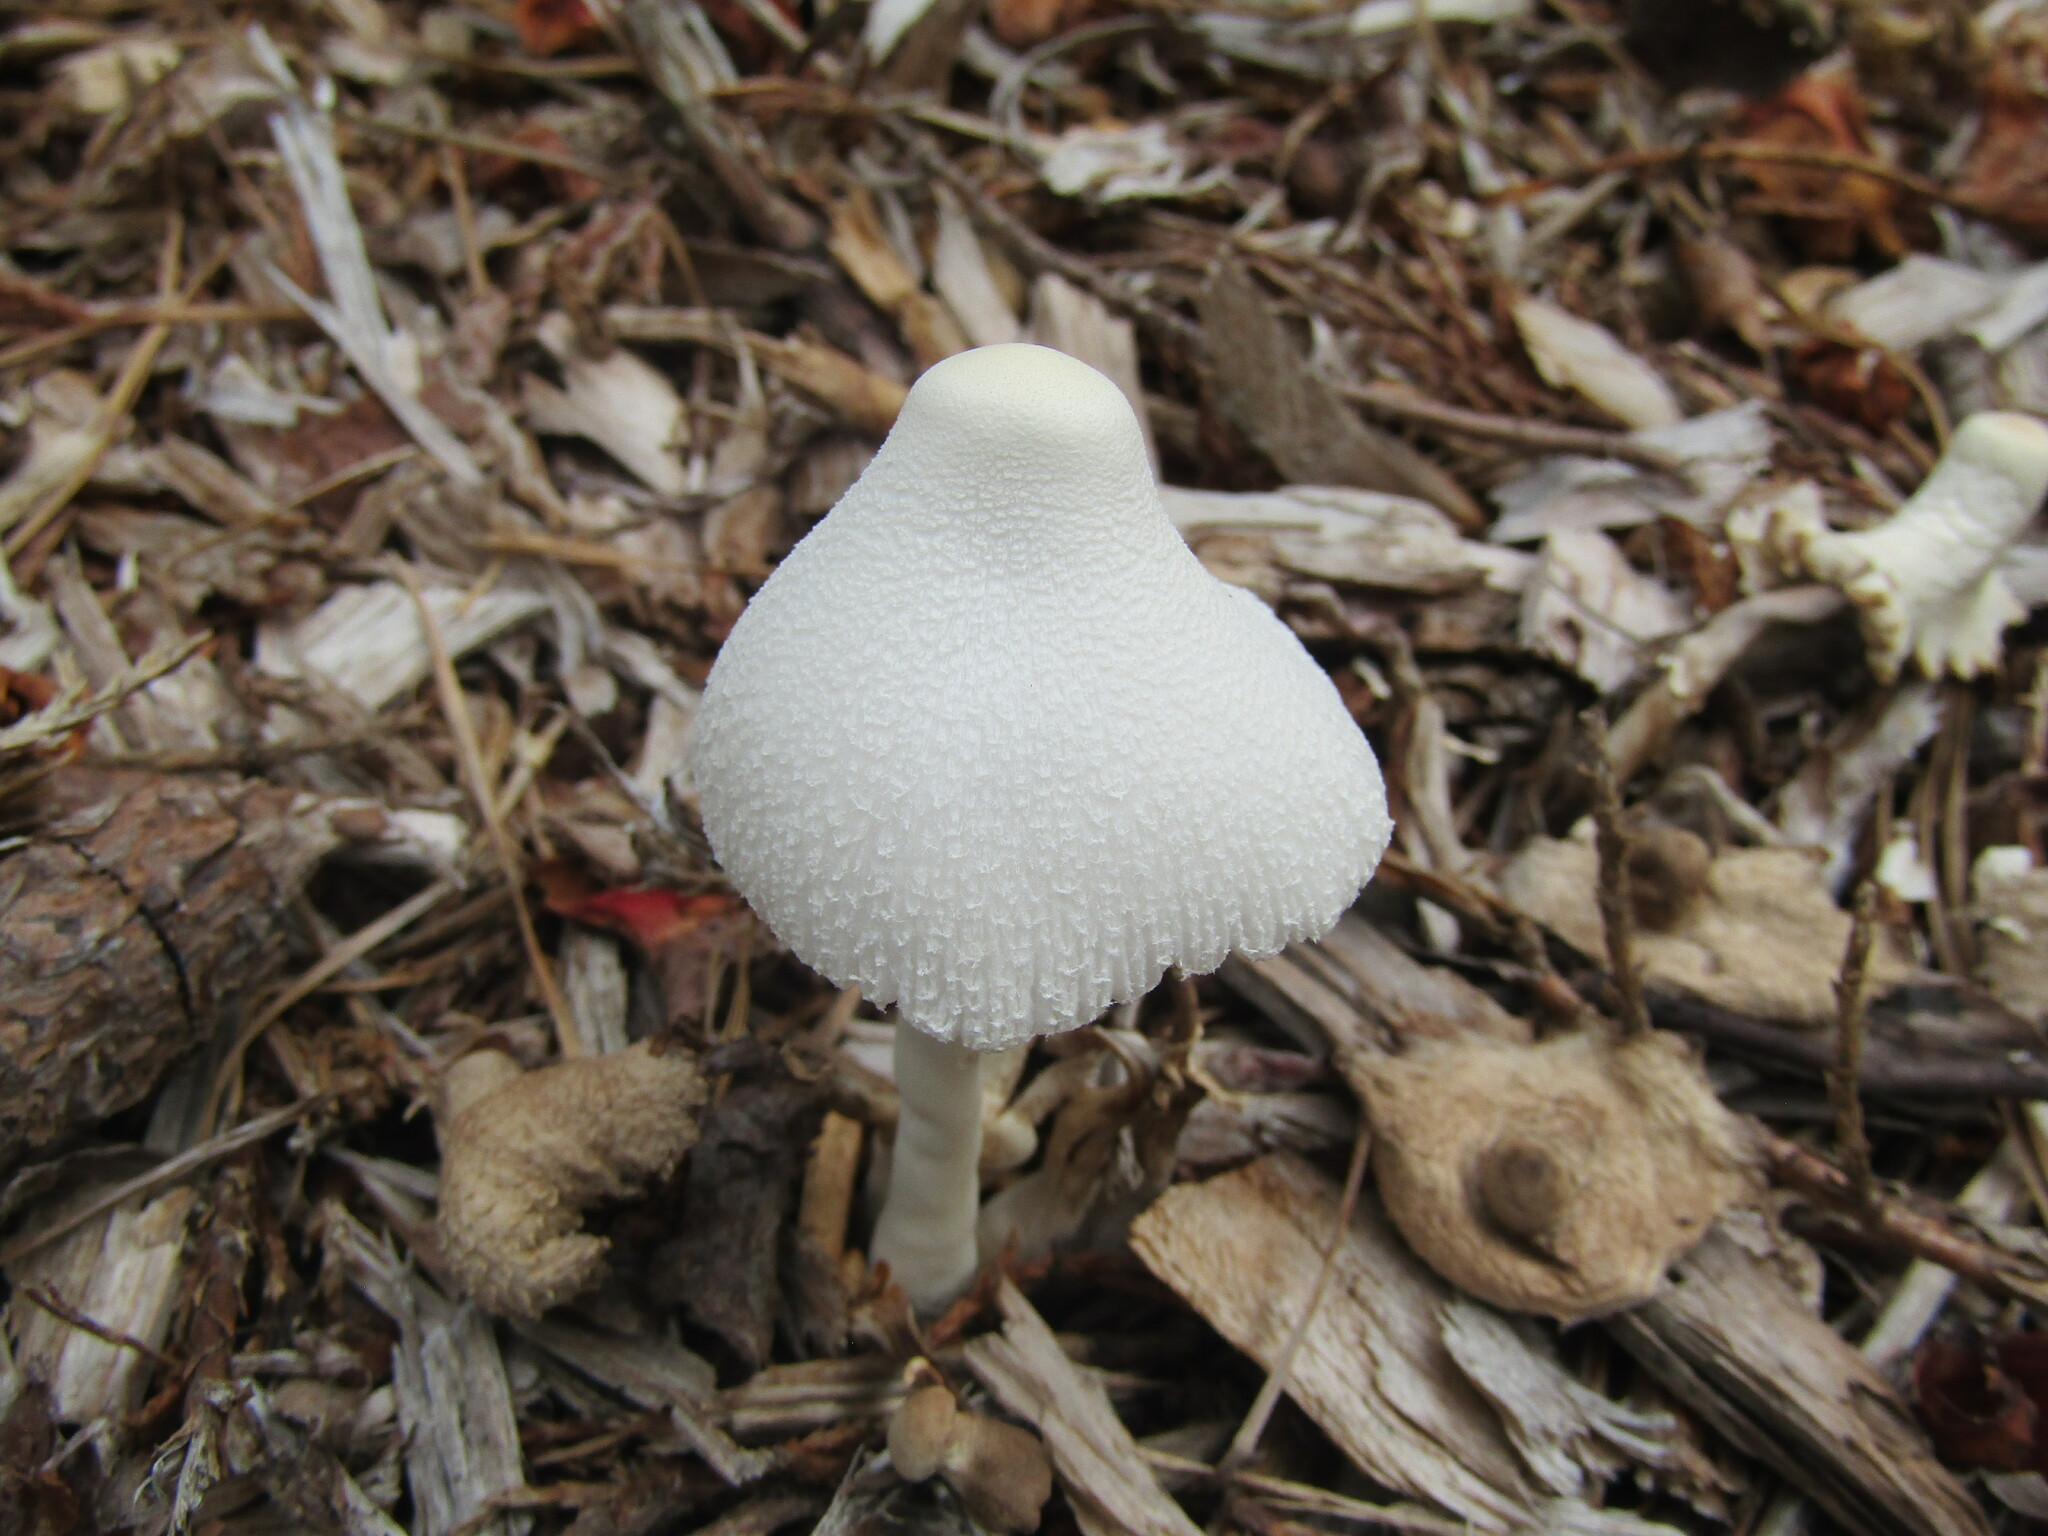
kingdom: Fungi
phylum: Basidiomycota
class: Agaricomycetes
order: Agaricales
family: Agaricaceae
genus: Leucocoprinus
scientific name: Leucocoprinus cepistipes
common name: Onion-stalk parasol
